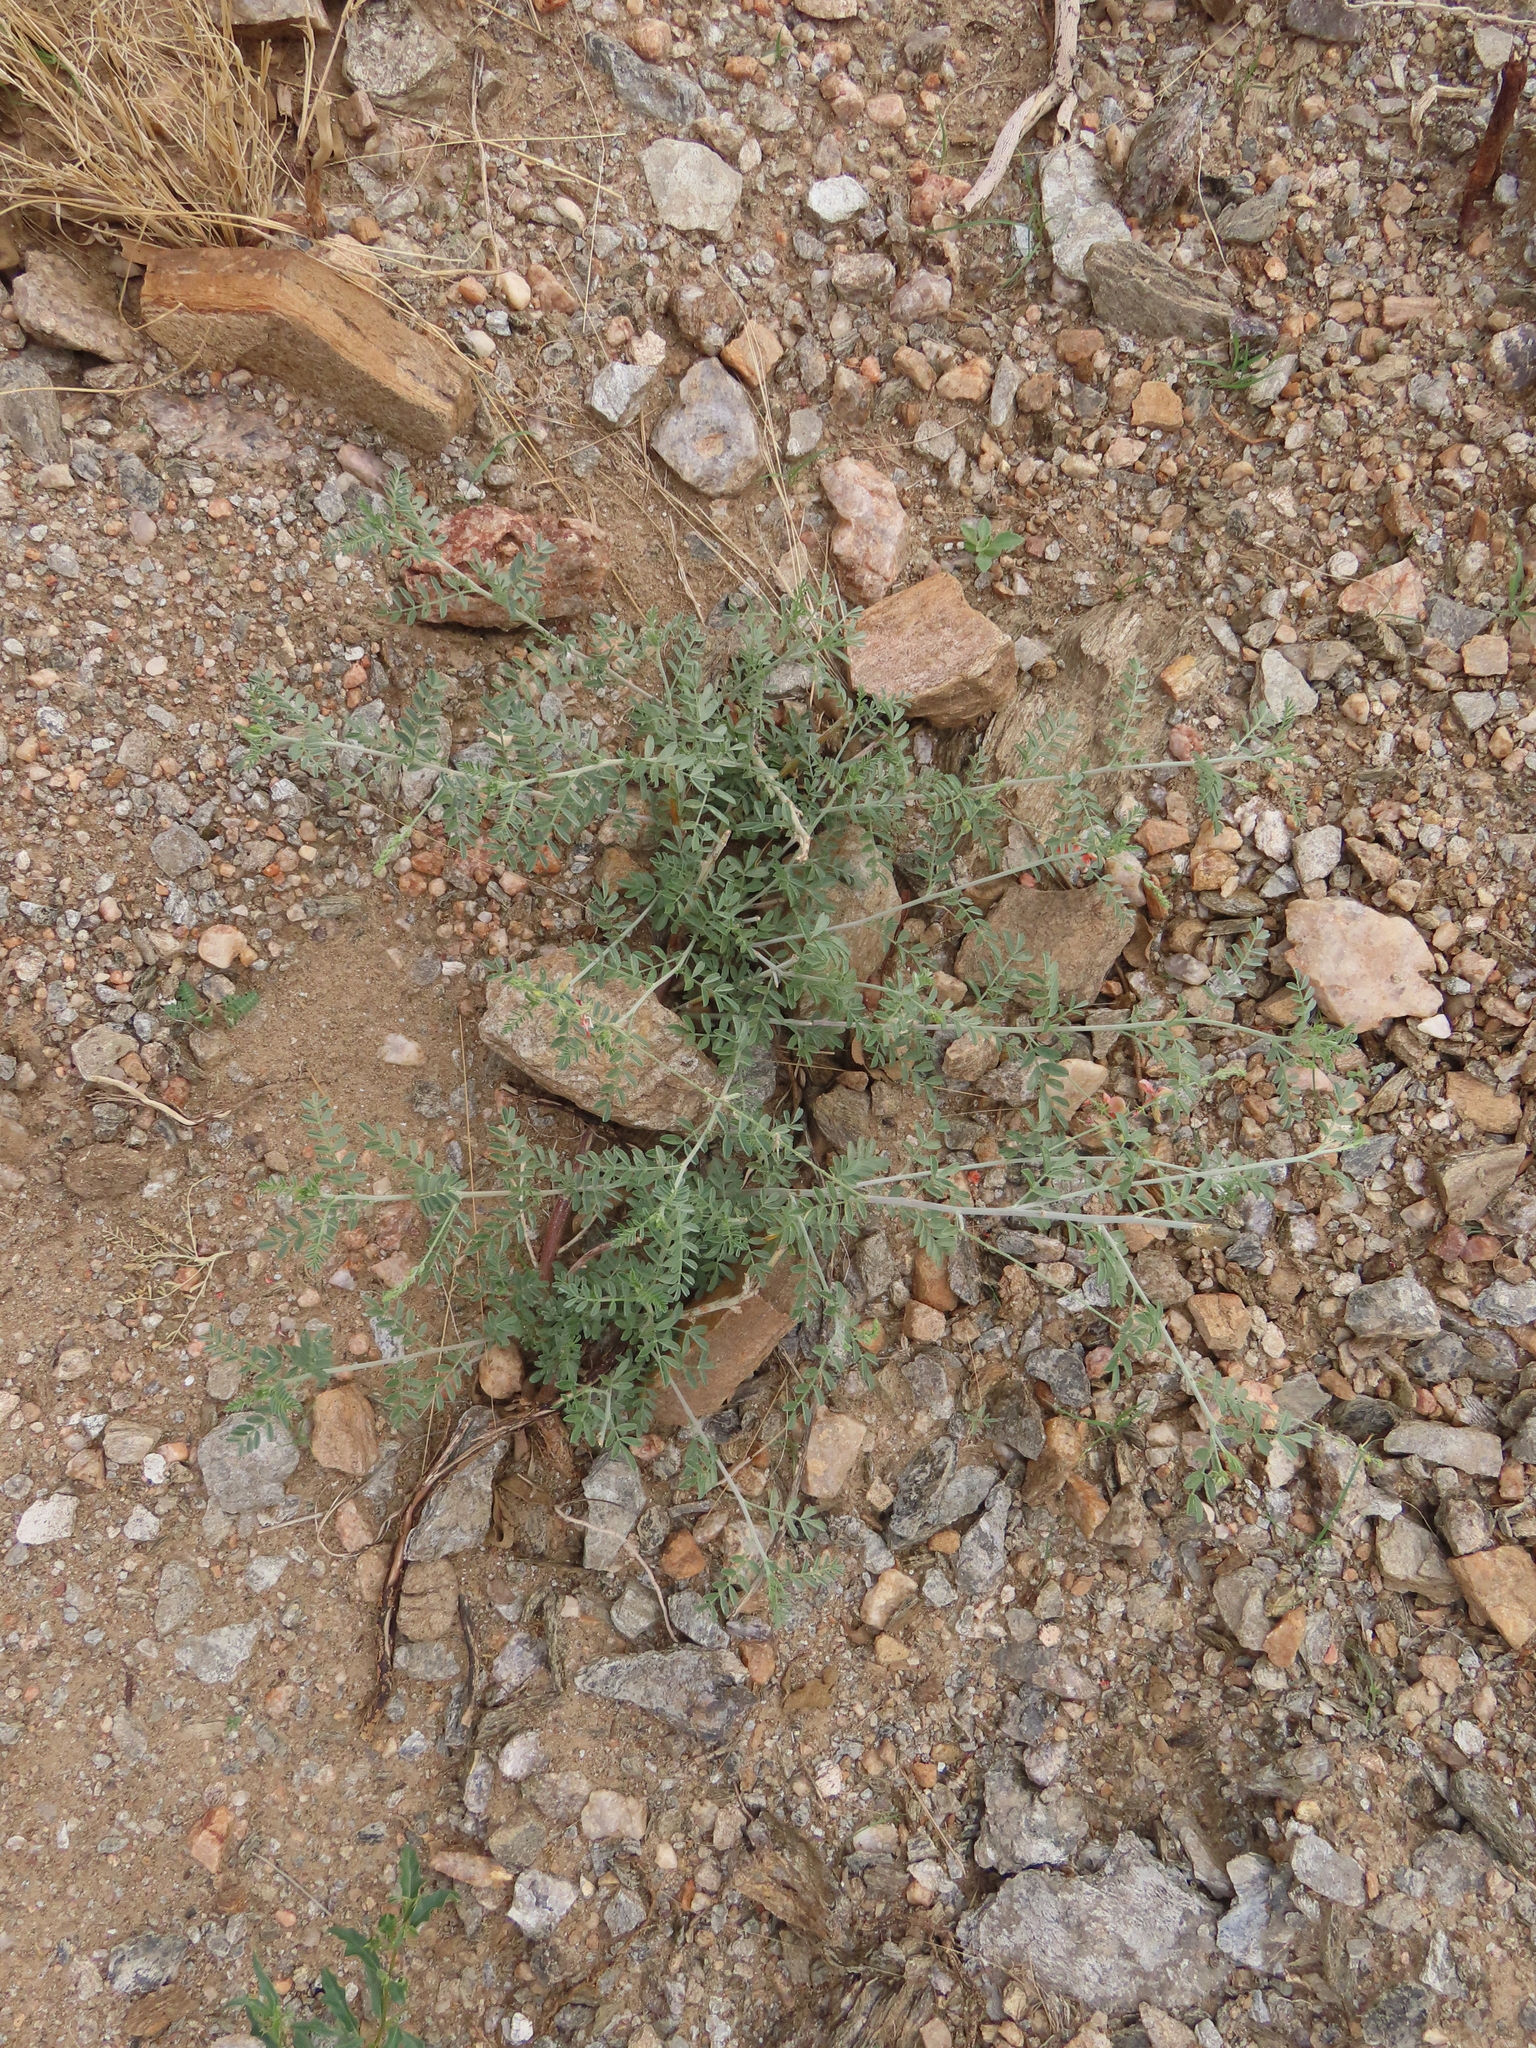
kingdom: Plantae
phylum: Tracheophyta
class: Magnoliopsida
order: Fabales
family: Fabaceae
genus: Indigofera
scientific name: Indigofera heterotricha
